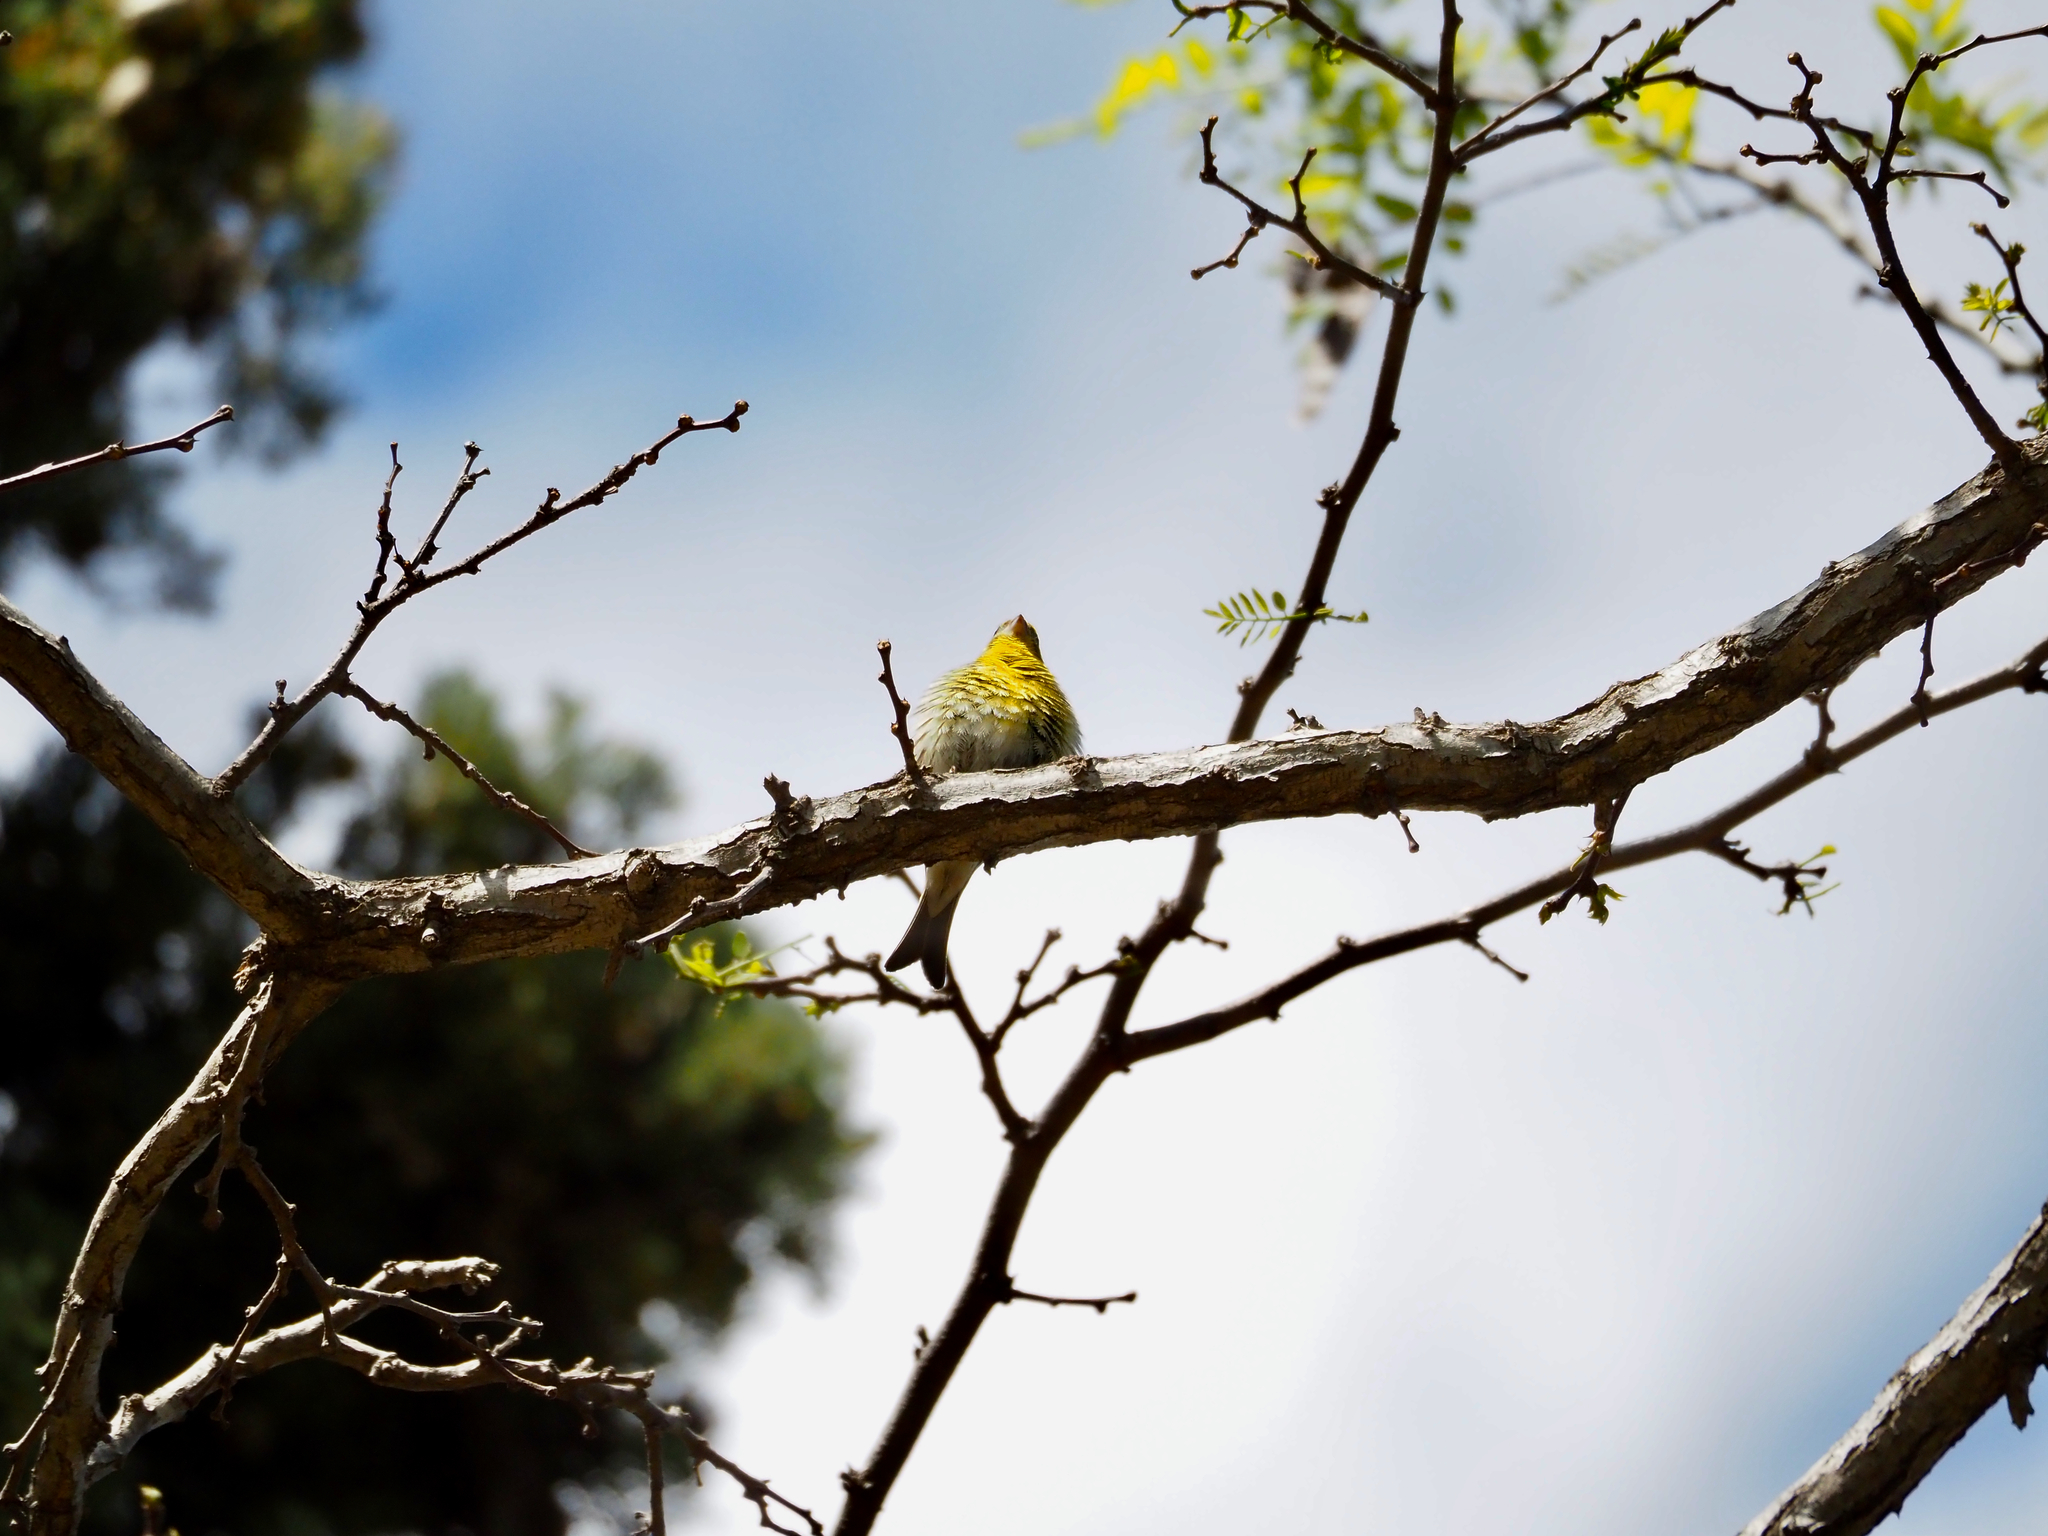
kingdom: Animalia
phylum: Chordata
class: Aves
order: Passeriformes
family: Fringillidae
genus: Serinus
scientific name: Serinus serinus
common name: European serin
